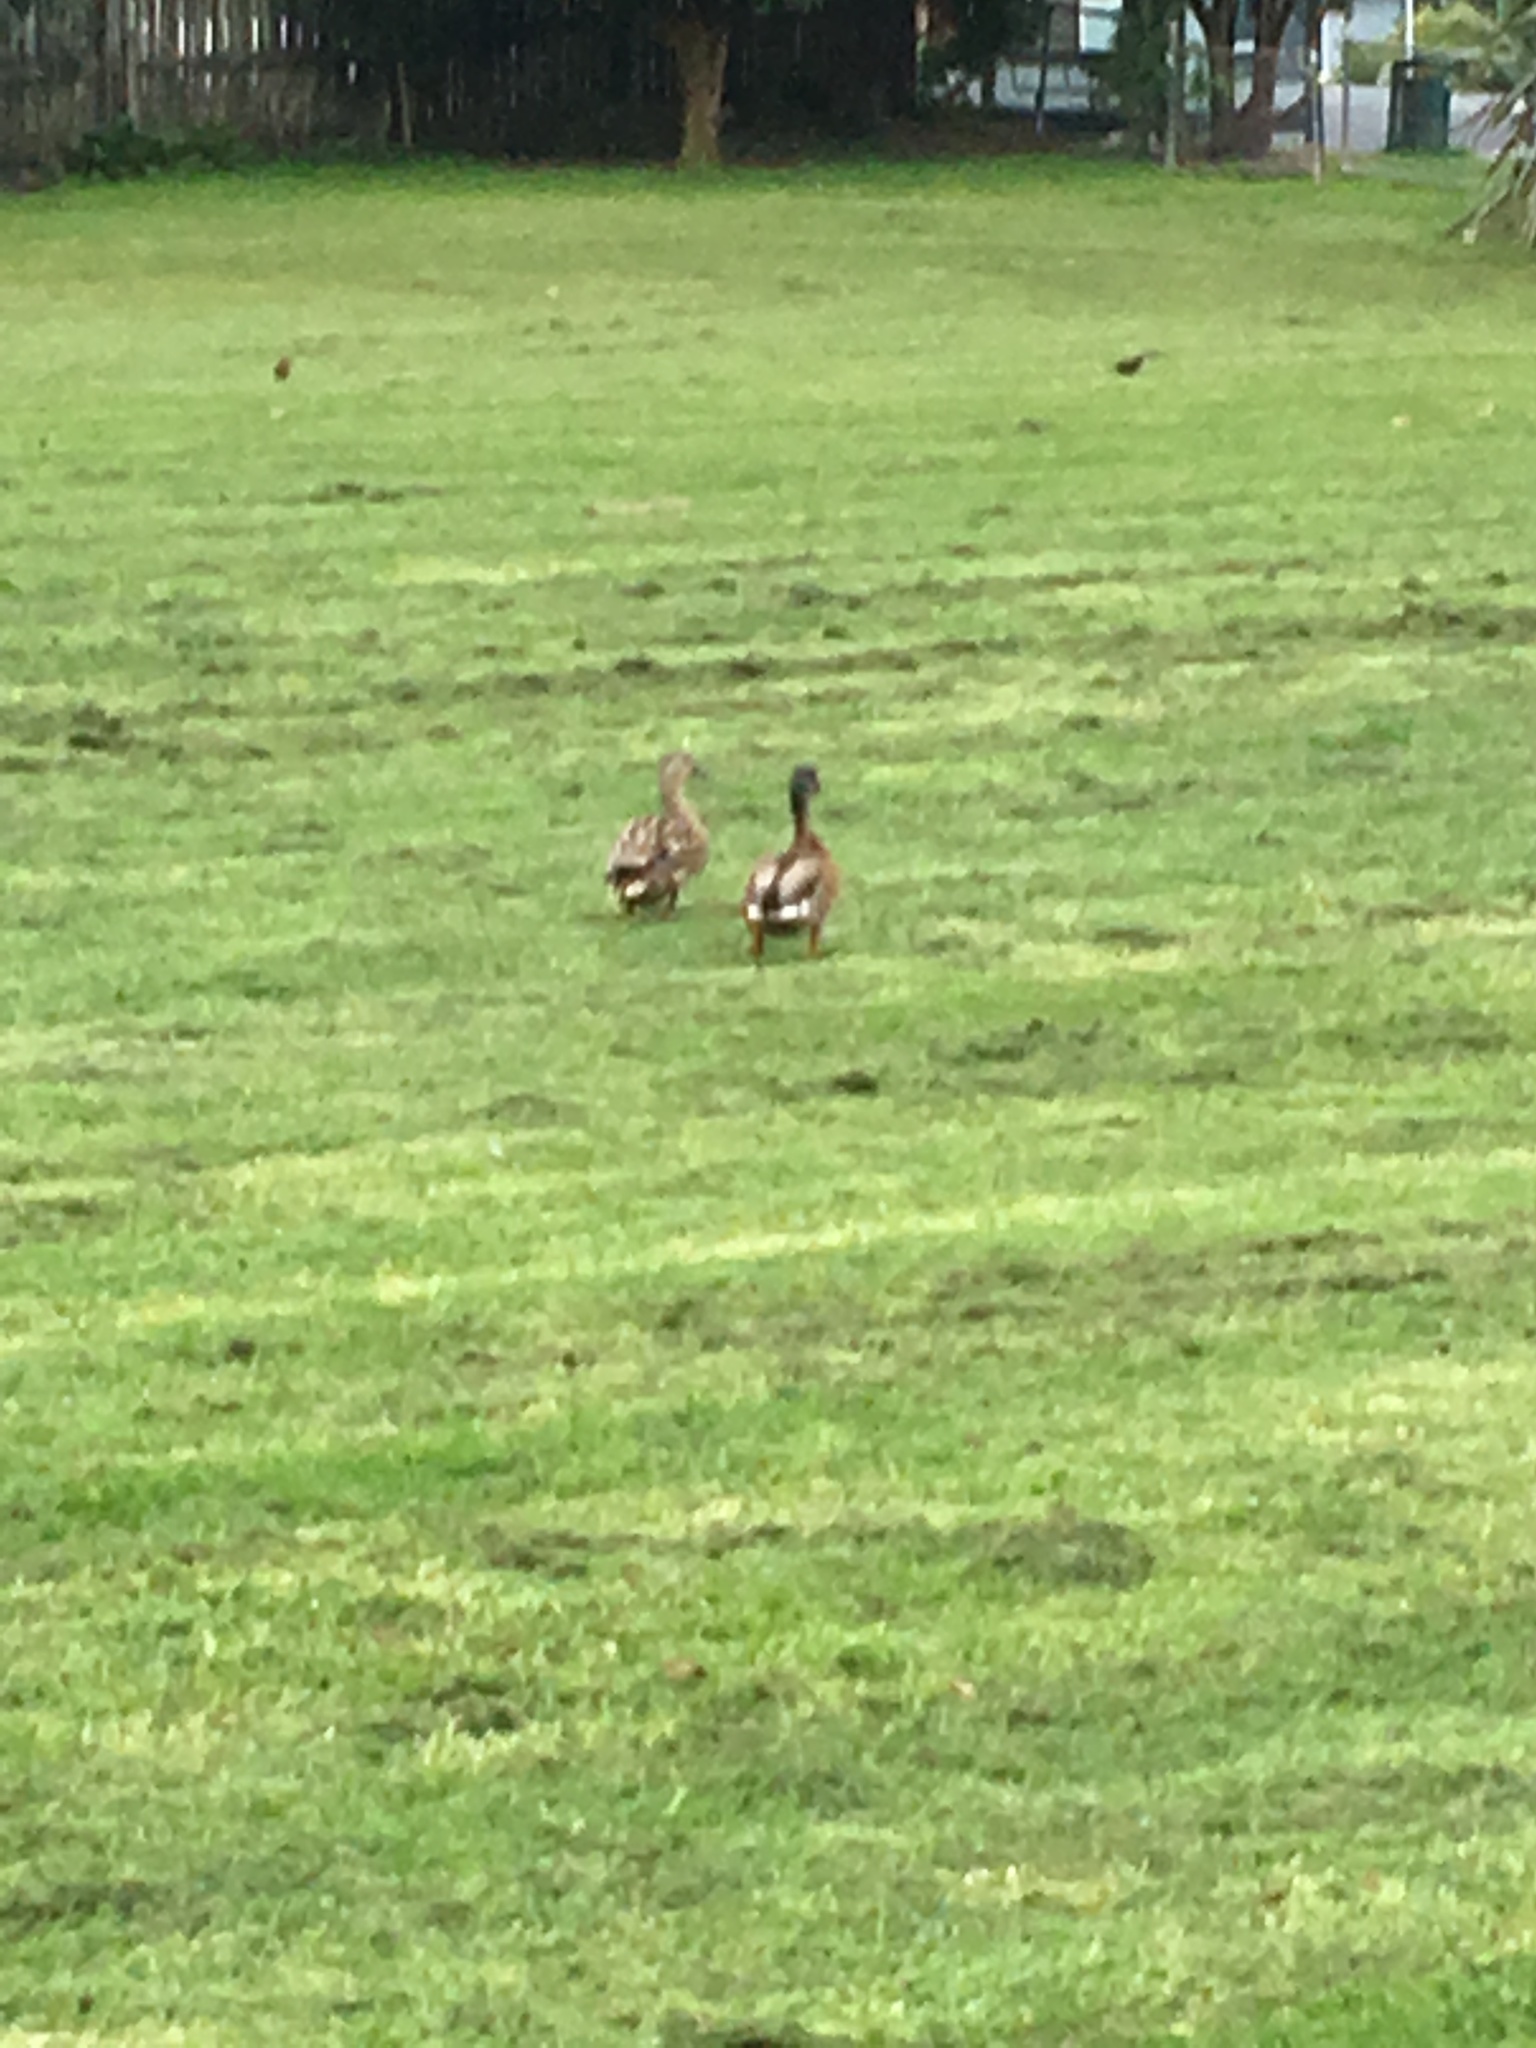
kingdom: Animalia
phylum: Chordata
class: Aves
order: Anseriformes
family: Anatidae
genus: Anas
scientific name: Anas platyrhynchos
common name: Mallard
